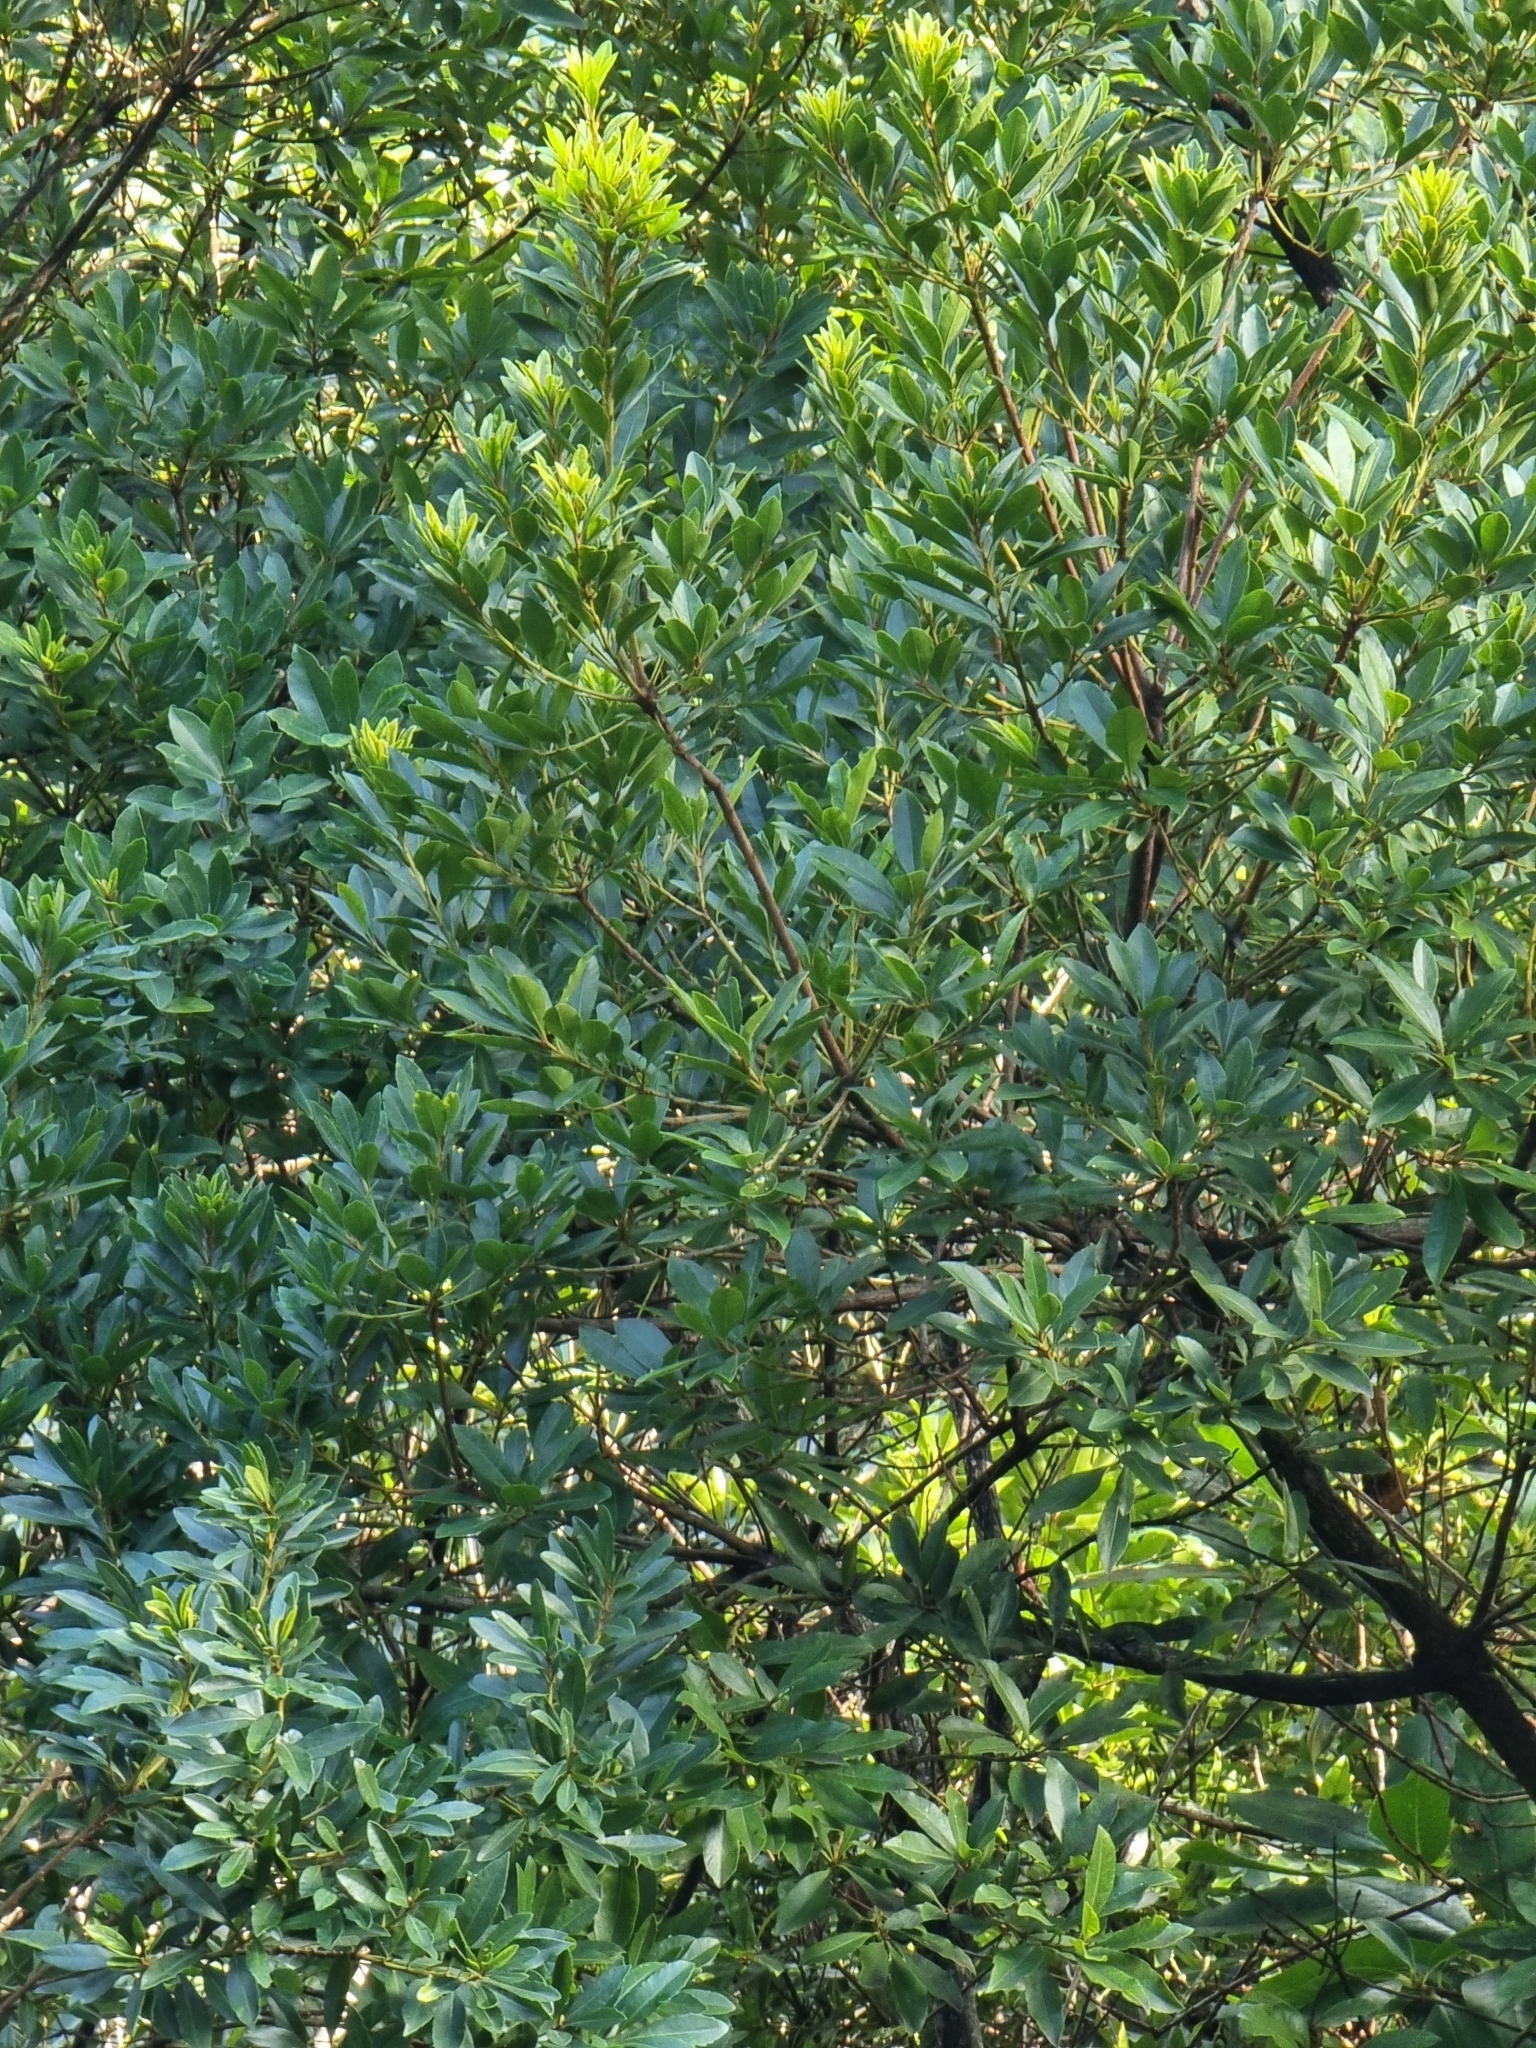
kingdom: Plantae
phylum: Tracheophyta
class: Magnoliopsida
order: Fagales
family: Myricaceae
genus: Morella
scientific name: Morella faya
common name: Firetree
